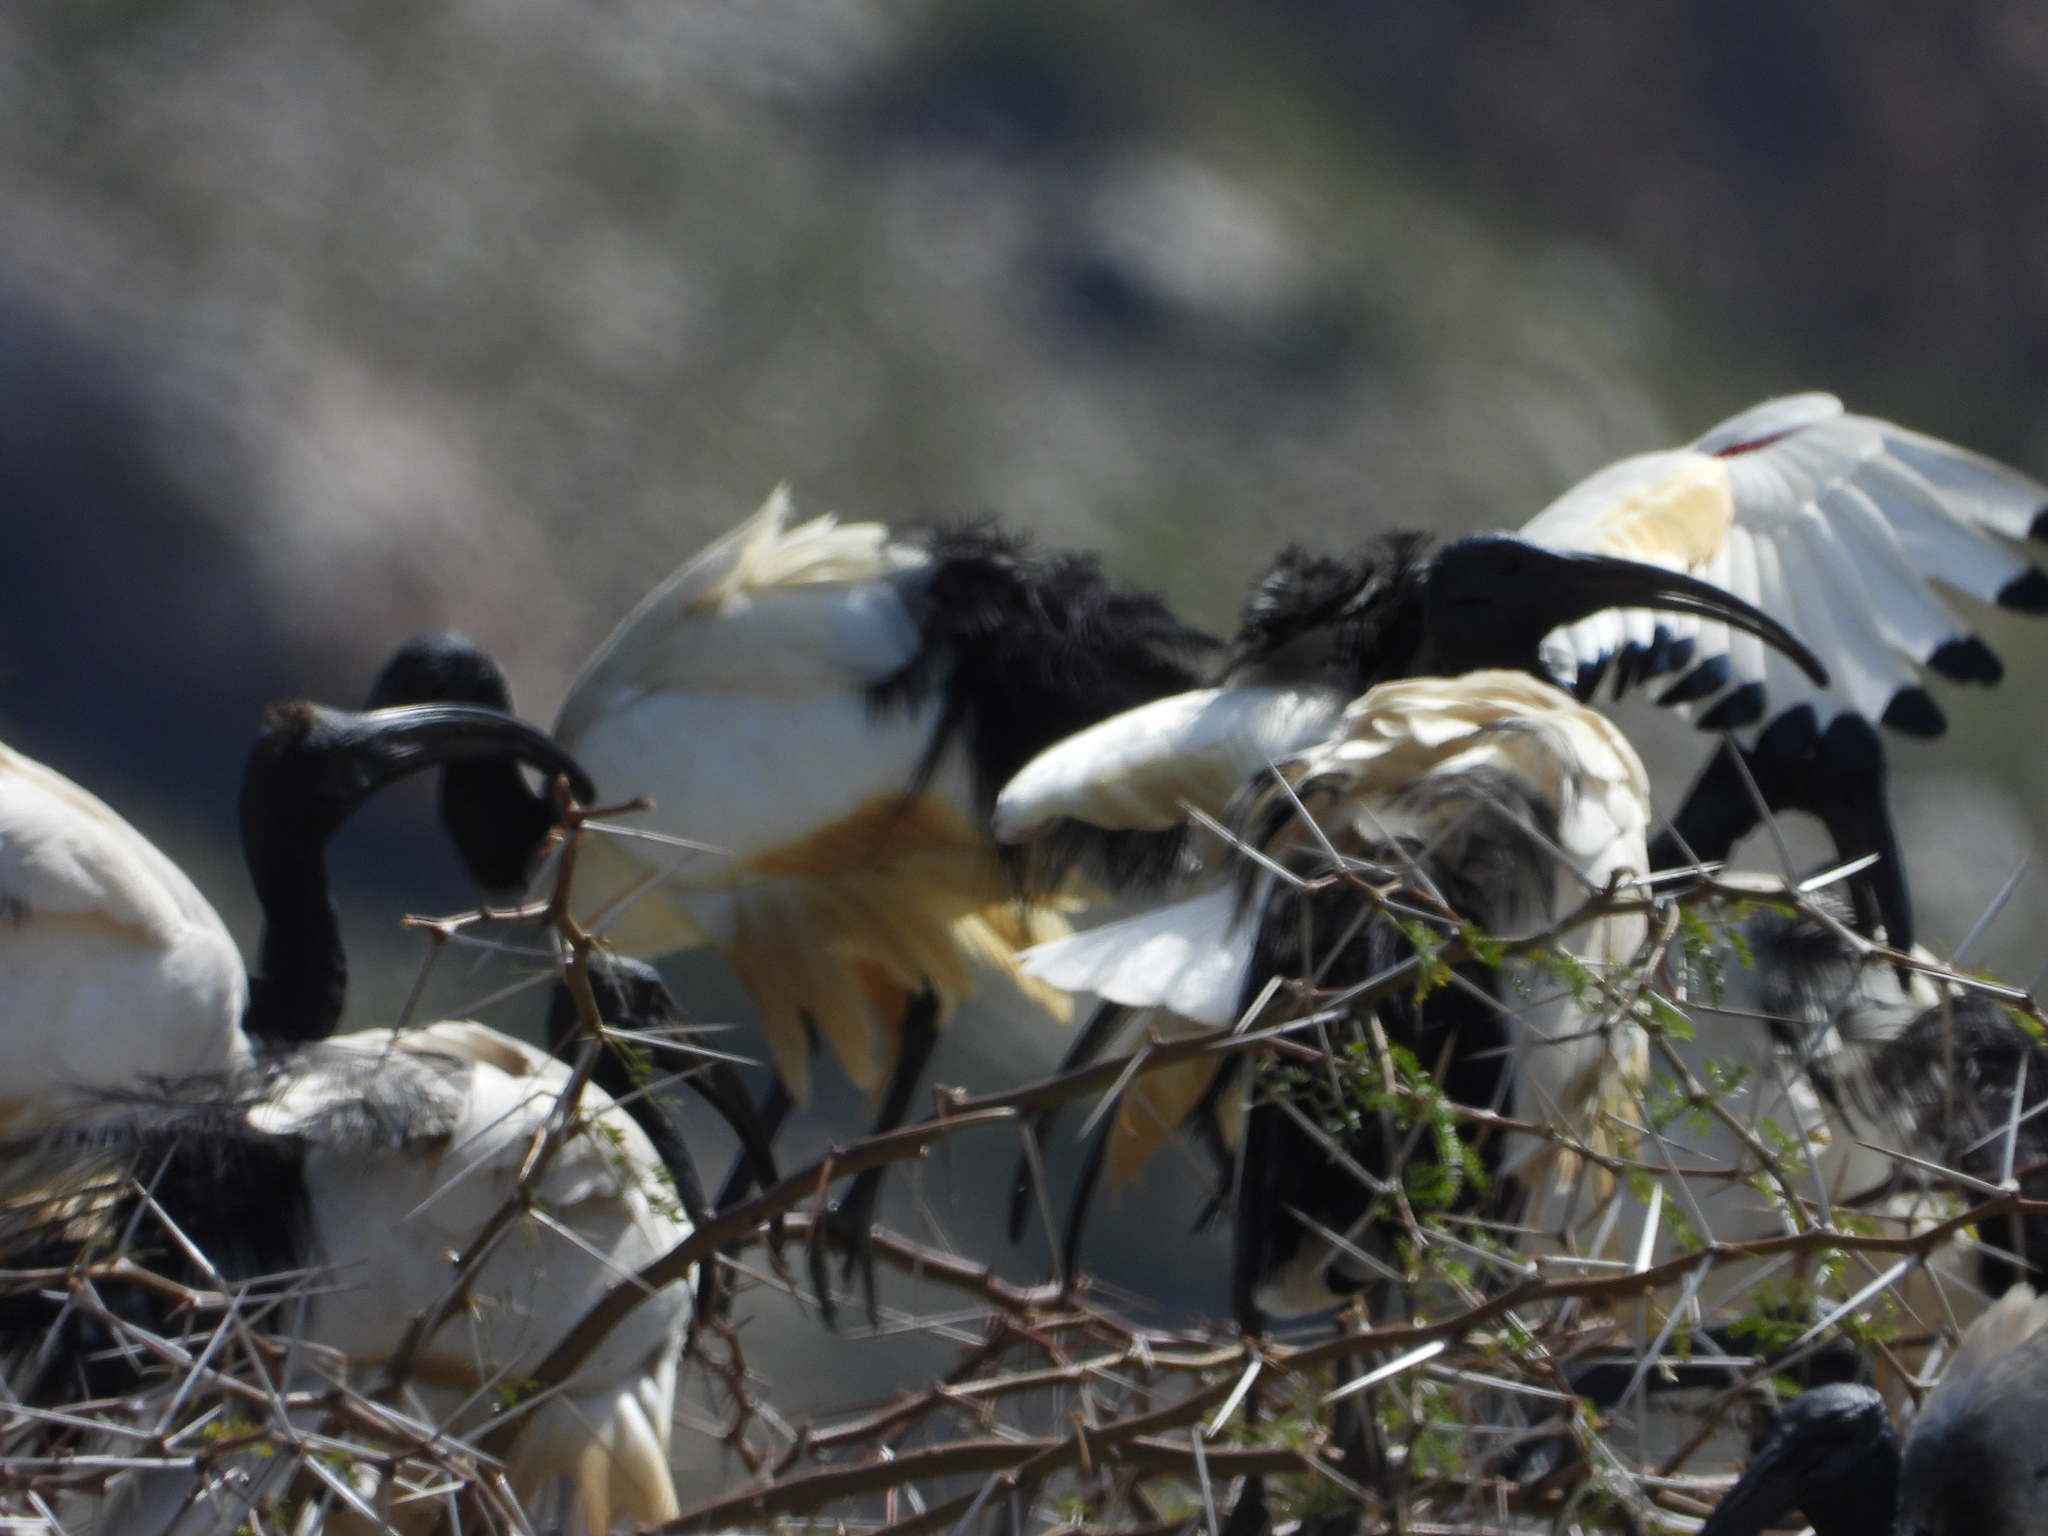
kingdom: Animalia
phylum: Chordata
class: Aves
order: Pelecaniformes
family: Threskiornithidae
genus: Threskiornis
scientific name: Threskiornis aethiopicus
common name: Sacred ibis
